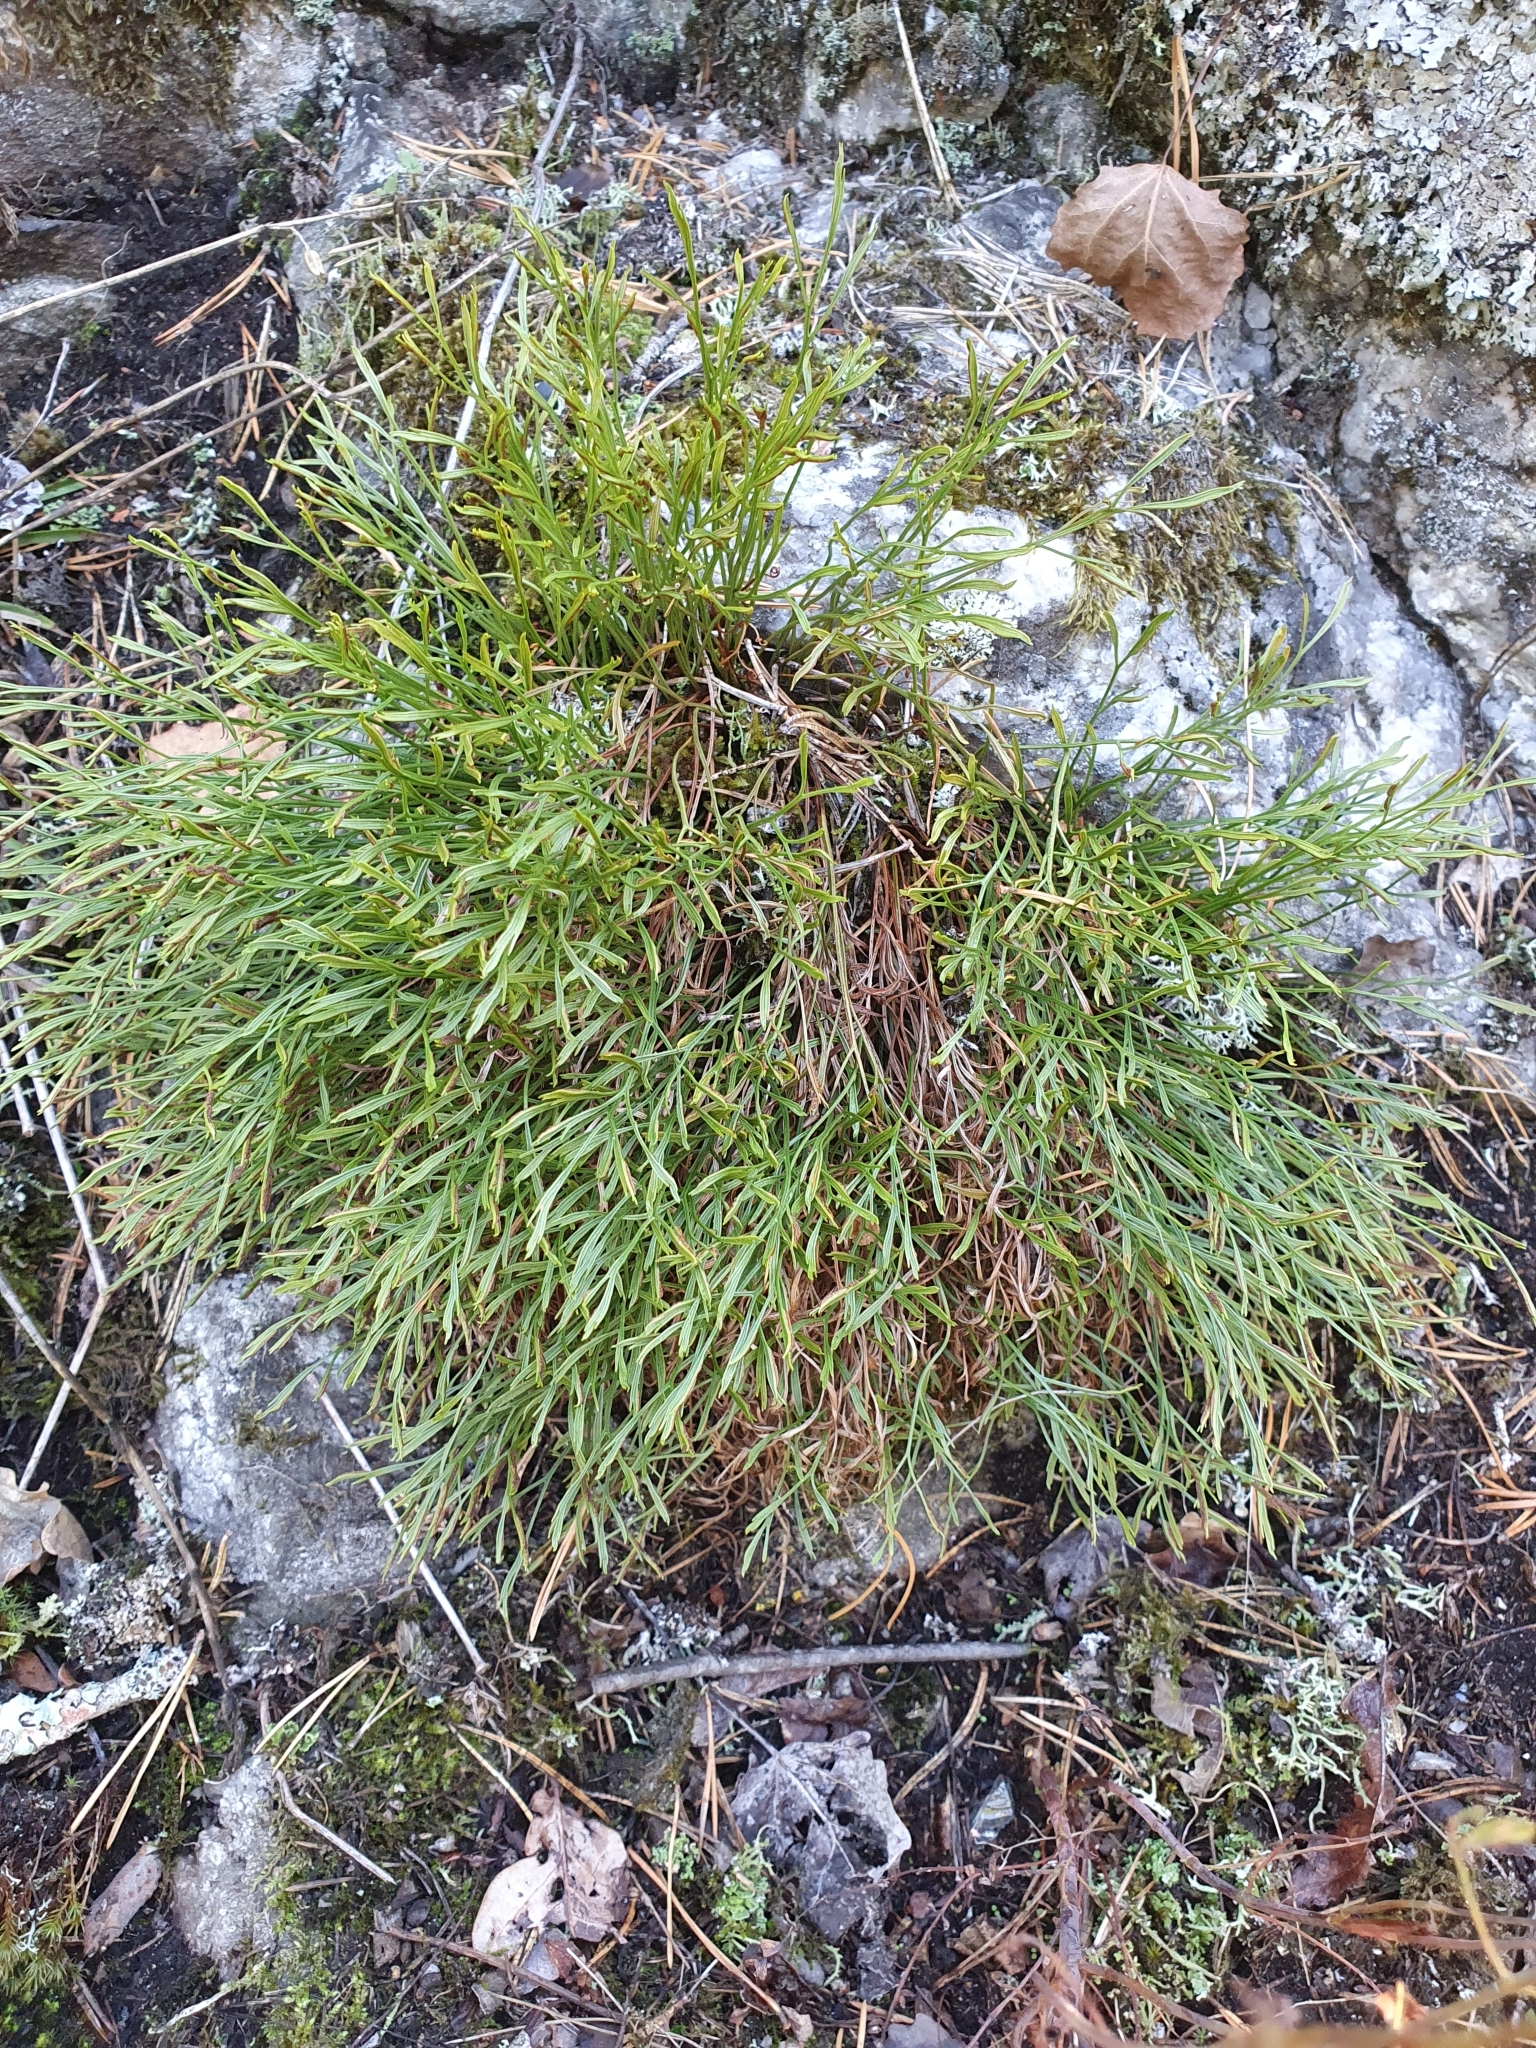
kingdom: Plantae
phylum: Tracheophyta
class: Polypodiopsida
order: Polypodiales
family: Aspleniaceae
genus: Asplenium
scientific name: Asplenium septentrionale
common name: Forked spleenwort
